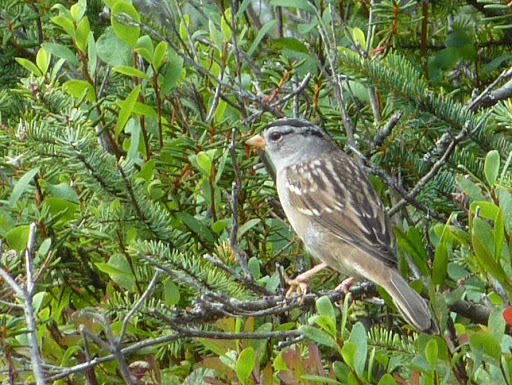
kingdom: Animalia
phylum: Chordata
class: Aves
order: Passeriformes
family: Passerellidae
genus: Zonotrichia
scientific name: Zonotrichia leucophrys
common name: White-crowned sparrow
